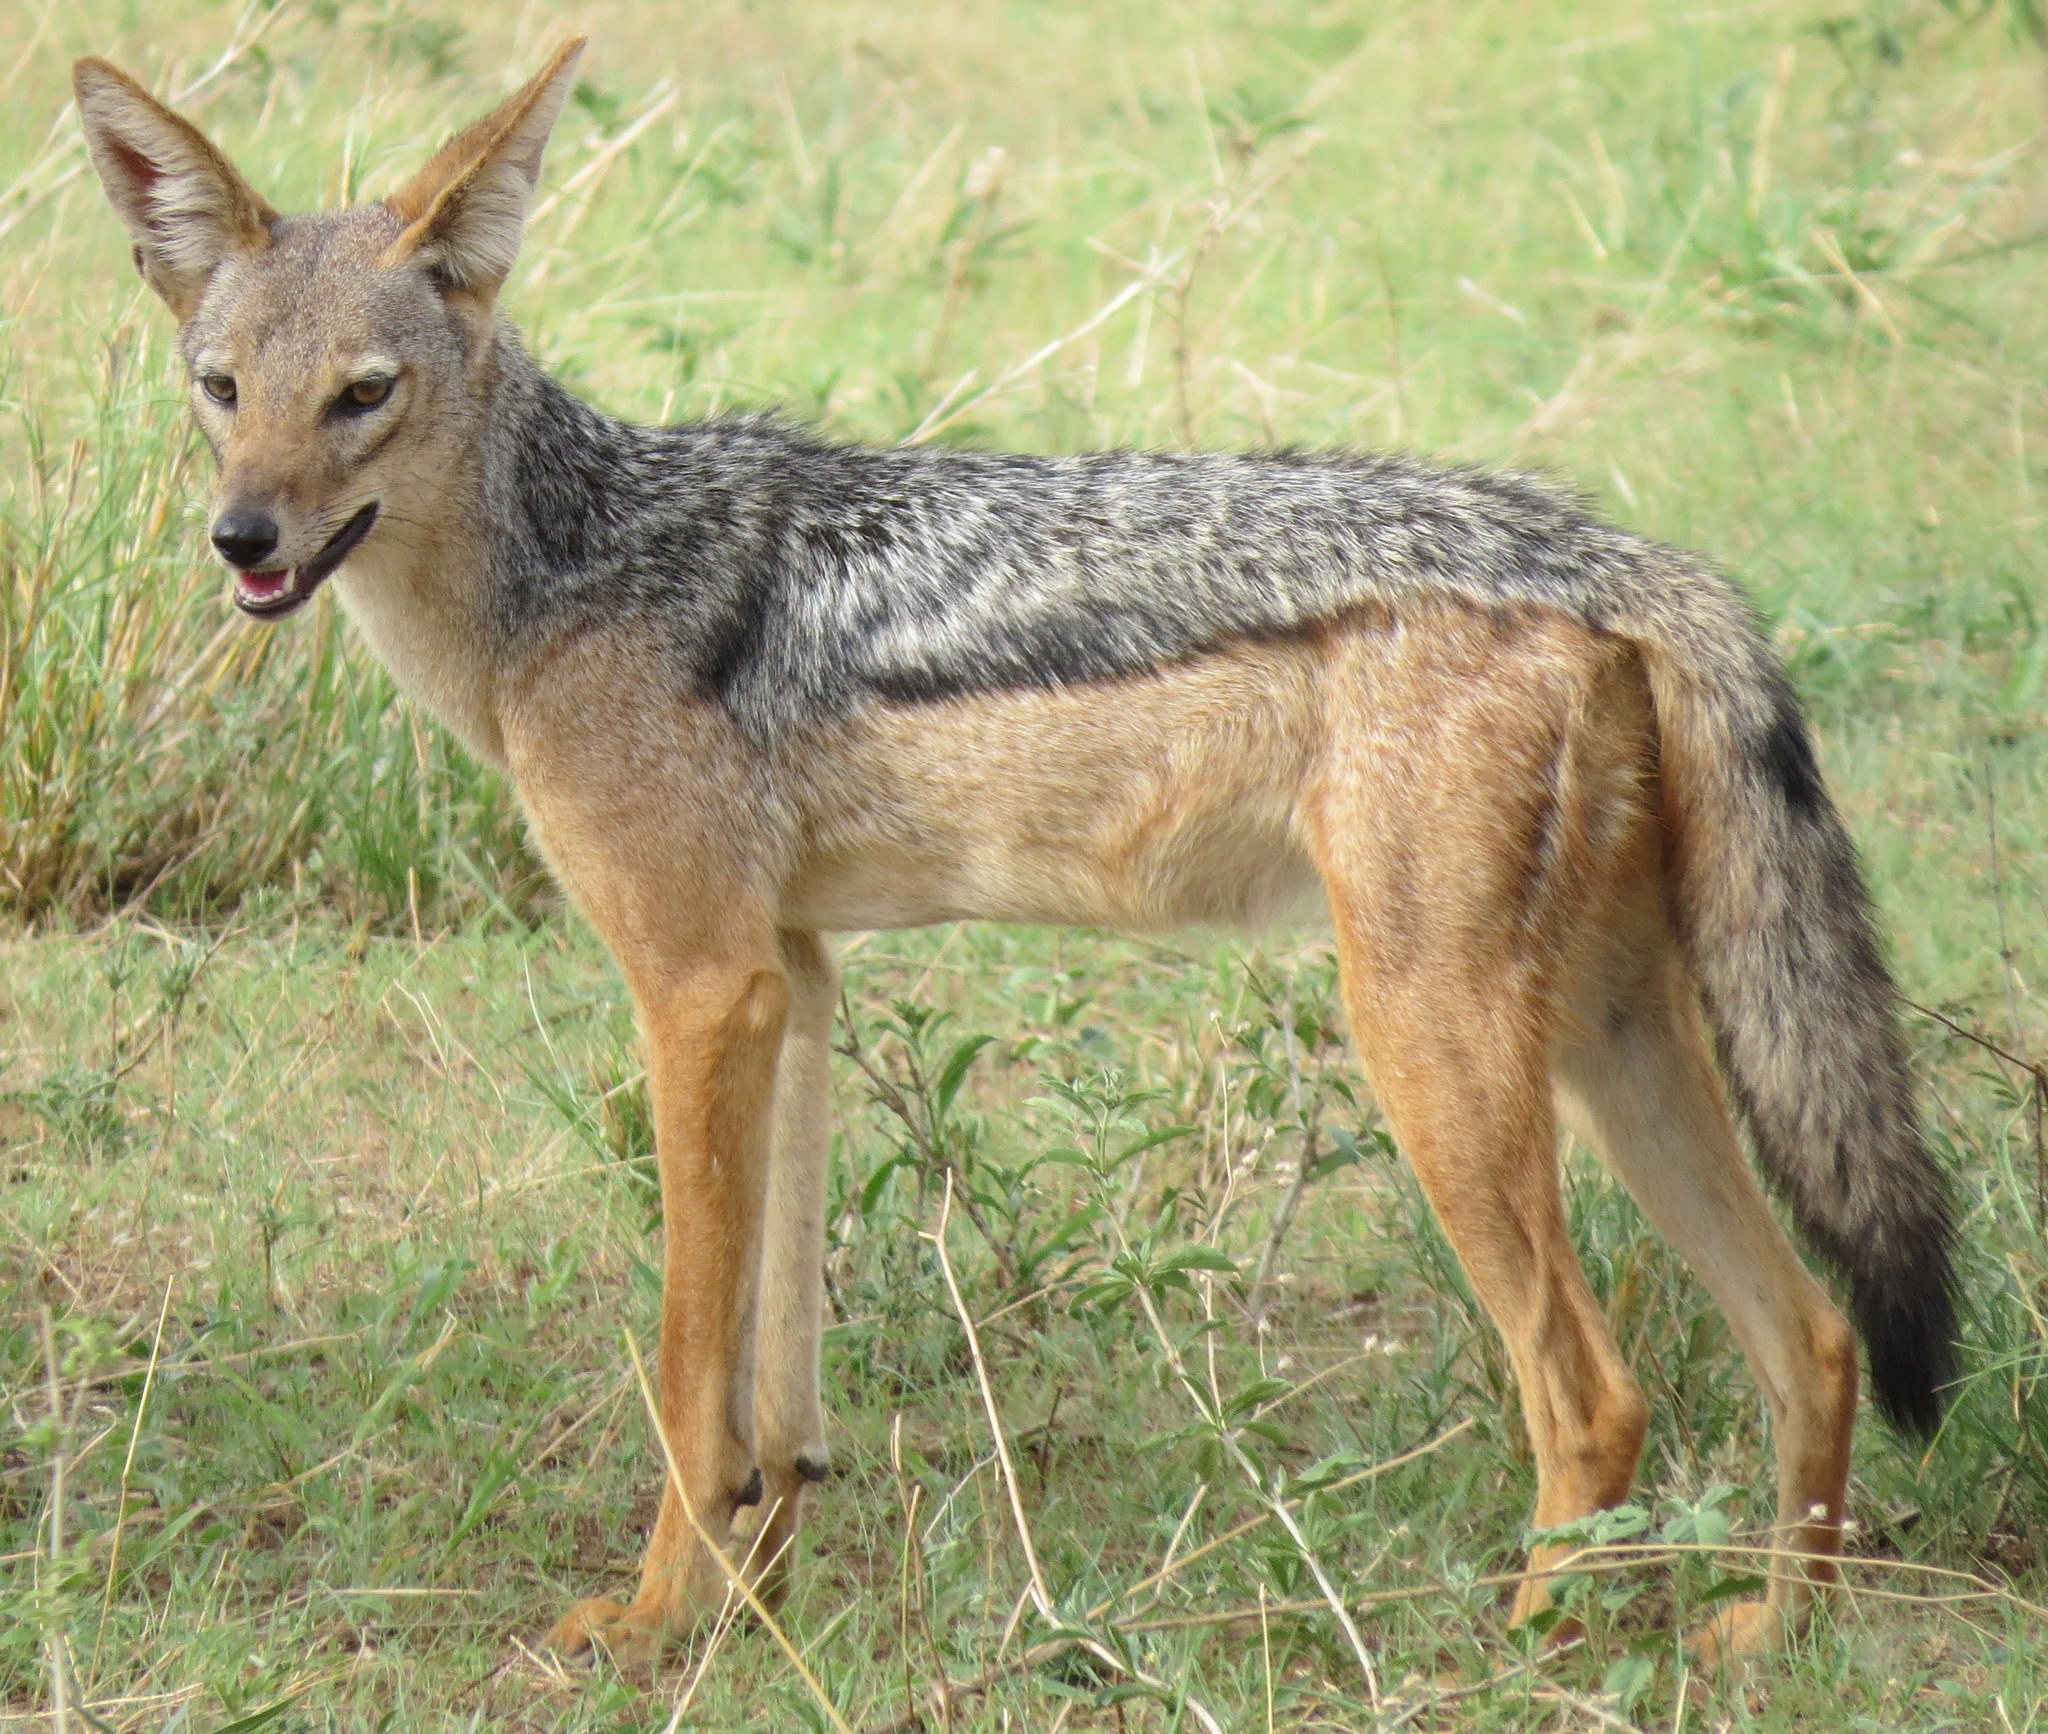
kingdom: Animalia
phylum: Chordata
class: Mammalia
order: Carnivora
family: Canidae
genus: Lupulella
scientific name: Lupulella
